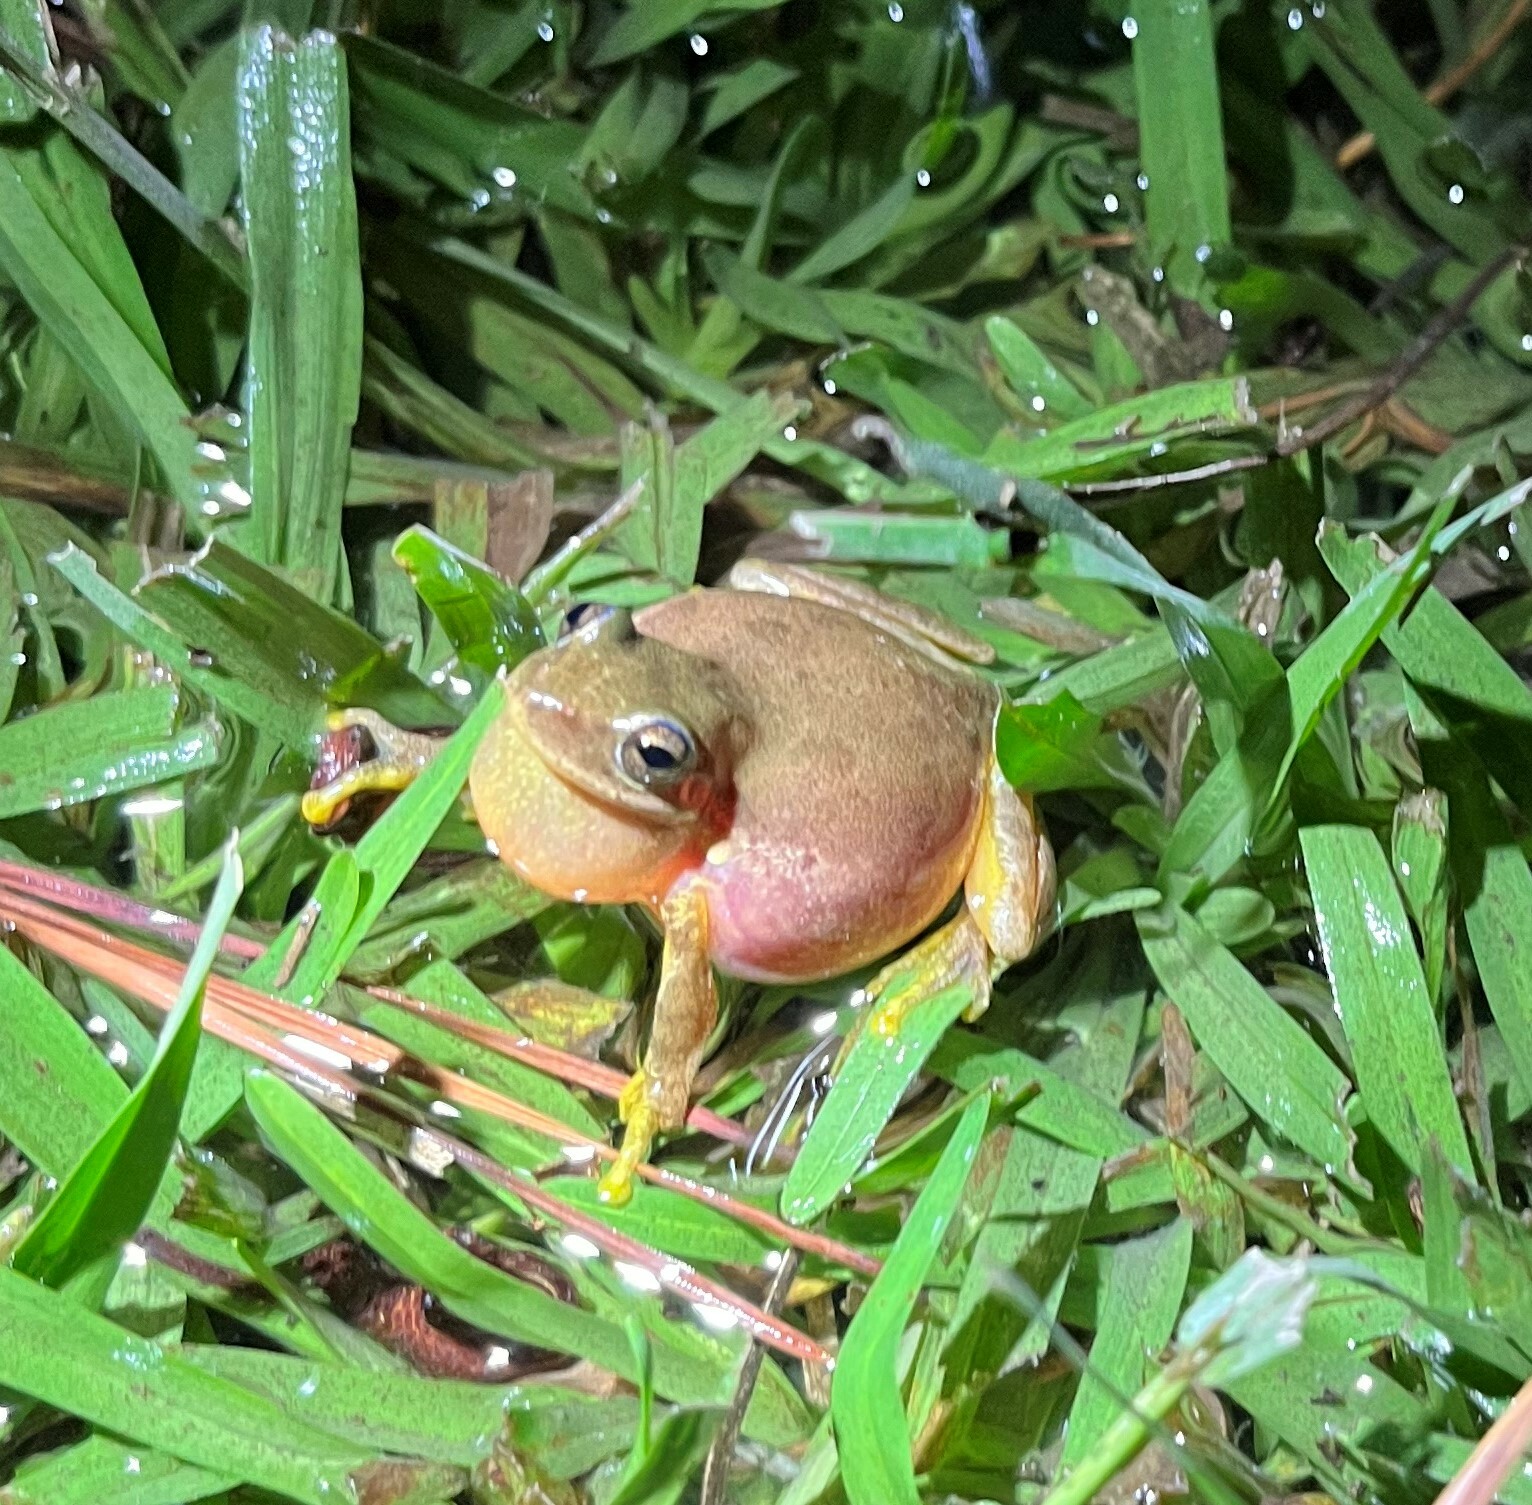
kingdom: Animalia
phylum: Chordata
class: Amphibia
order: Anura
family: Hylidae
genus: Dryophytes
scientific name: Dryophytes squirellus
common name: Squirrel treefrog
